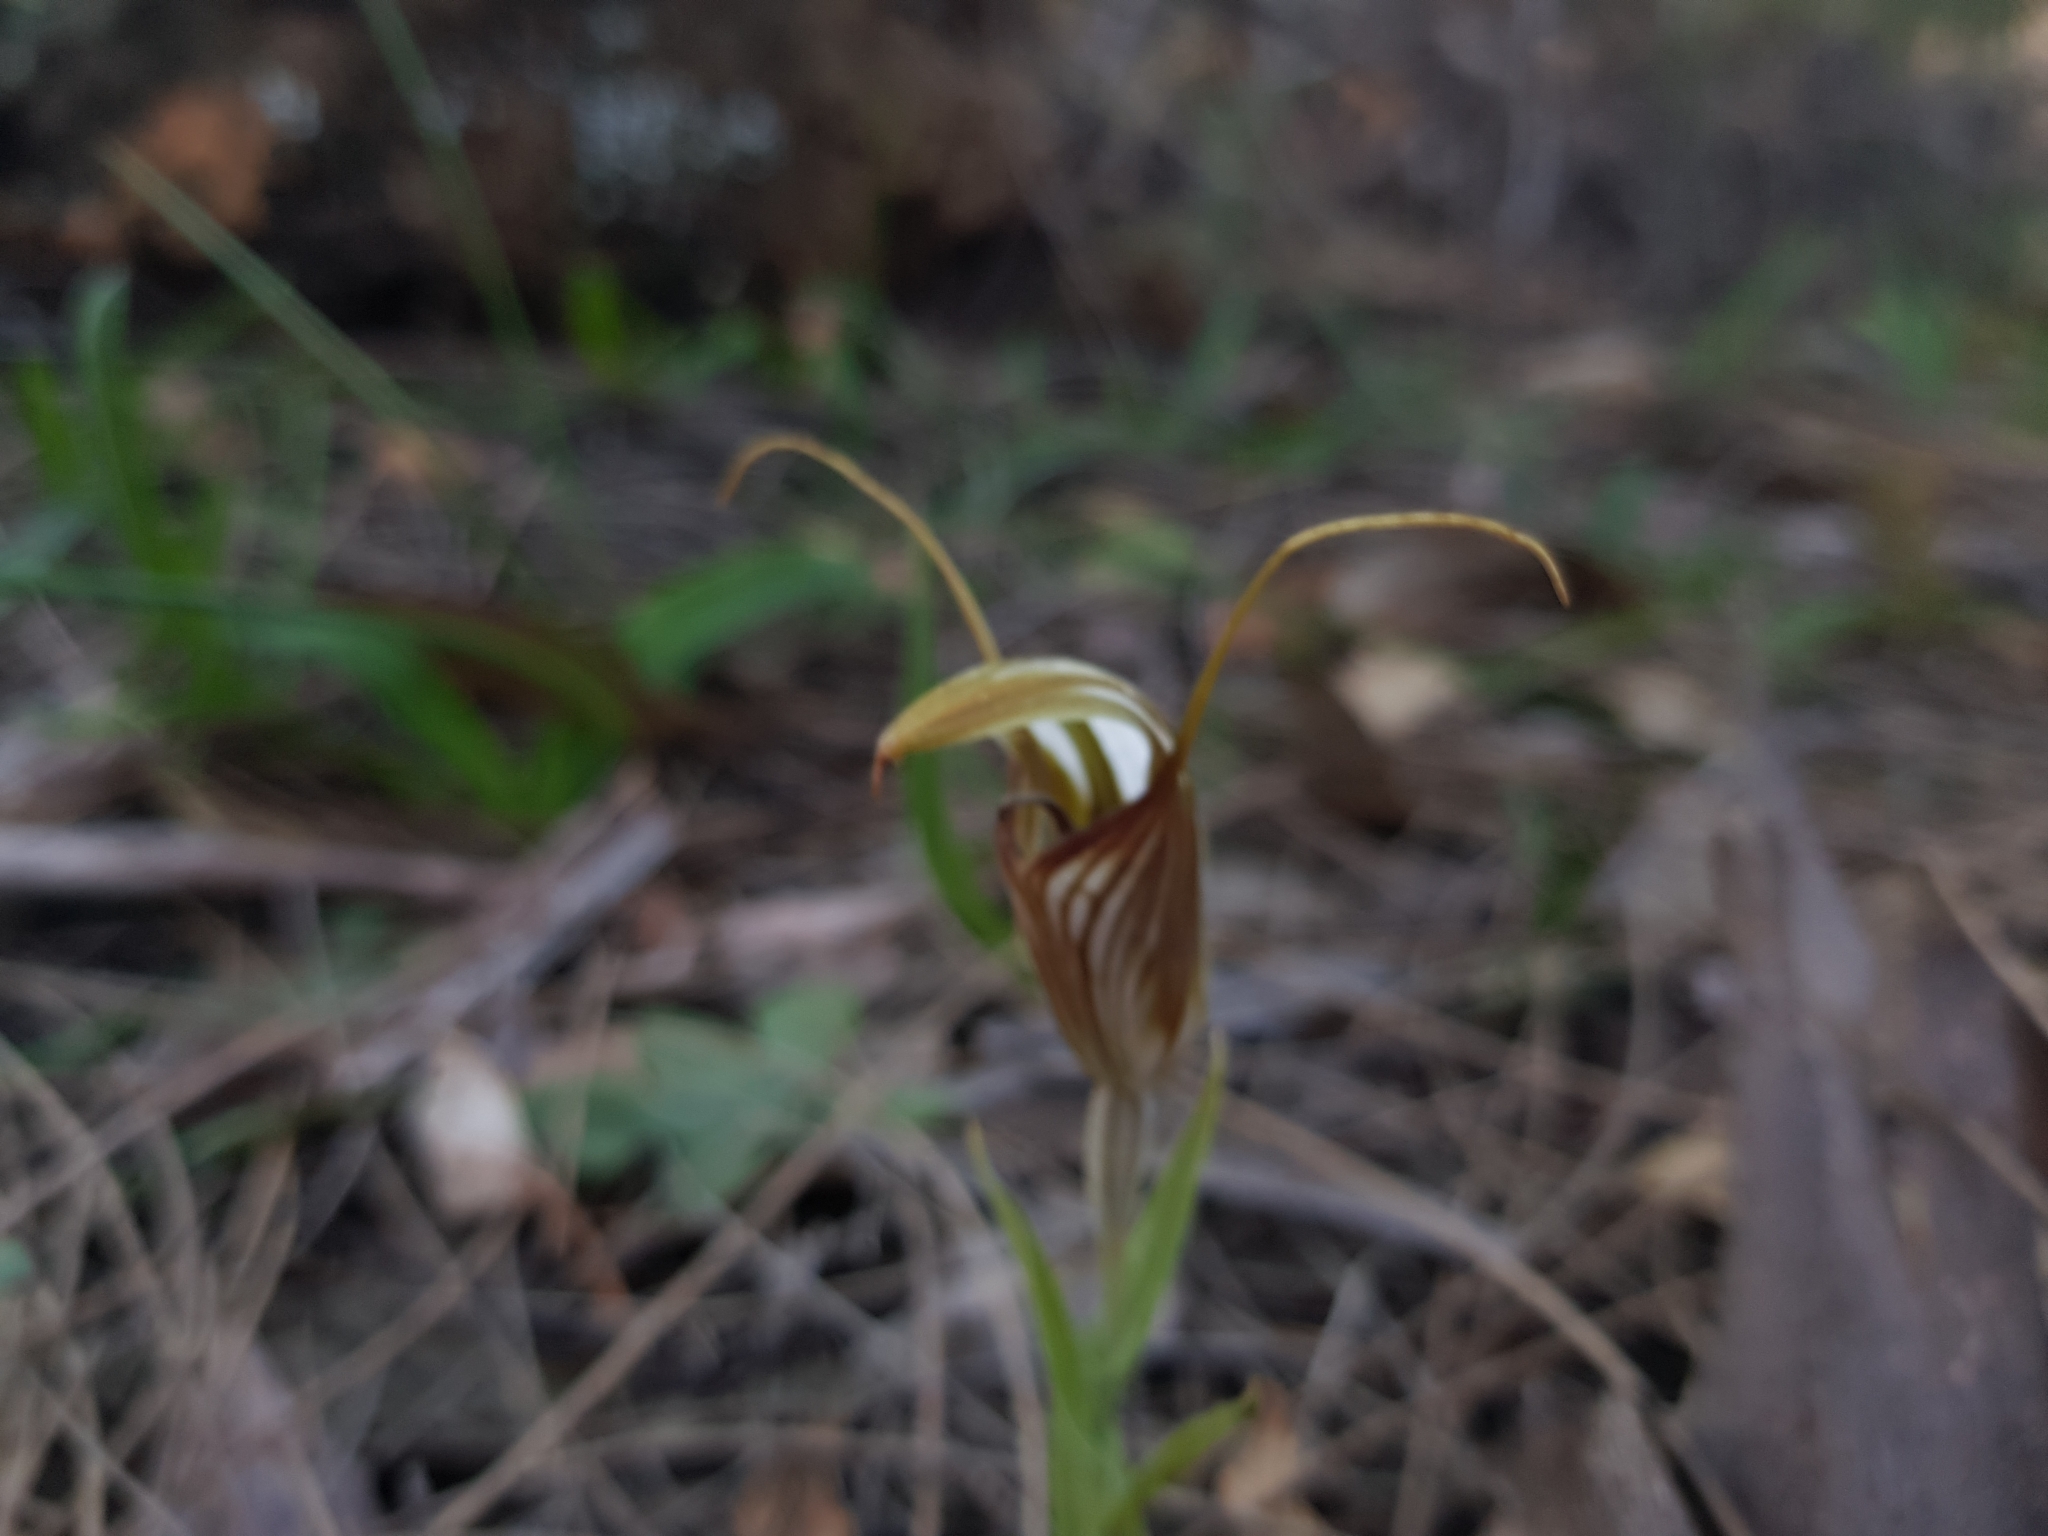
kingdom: Plantae
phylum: Tracheophyta
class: Liliopsida
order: Asparagales
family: Orchidaceae
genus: Pterostylis
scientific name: Pterostylis hamiltonii
